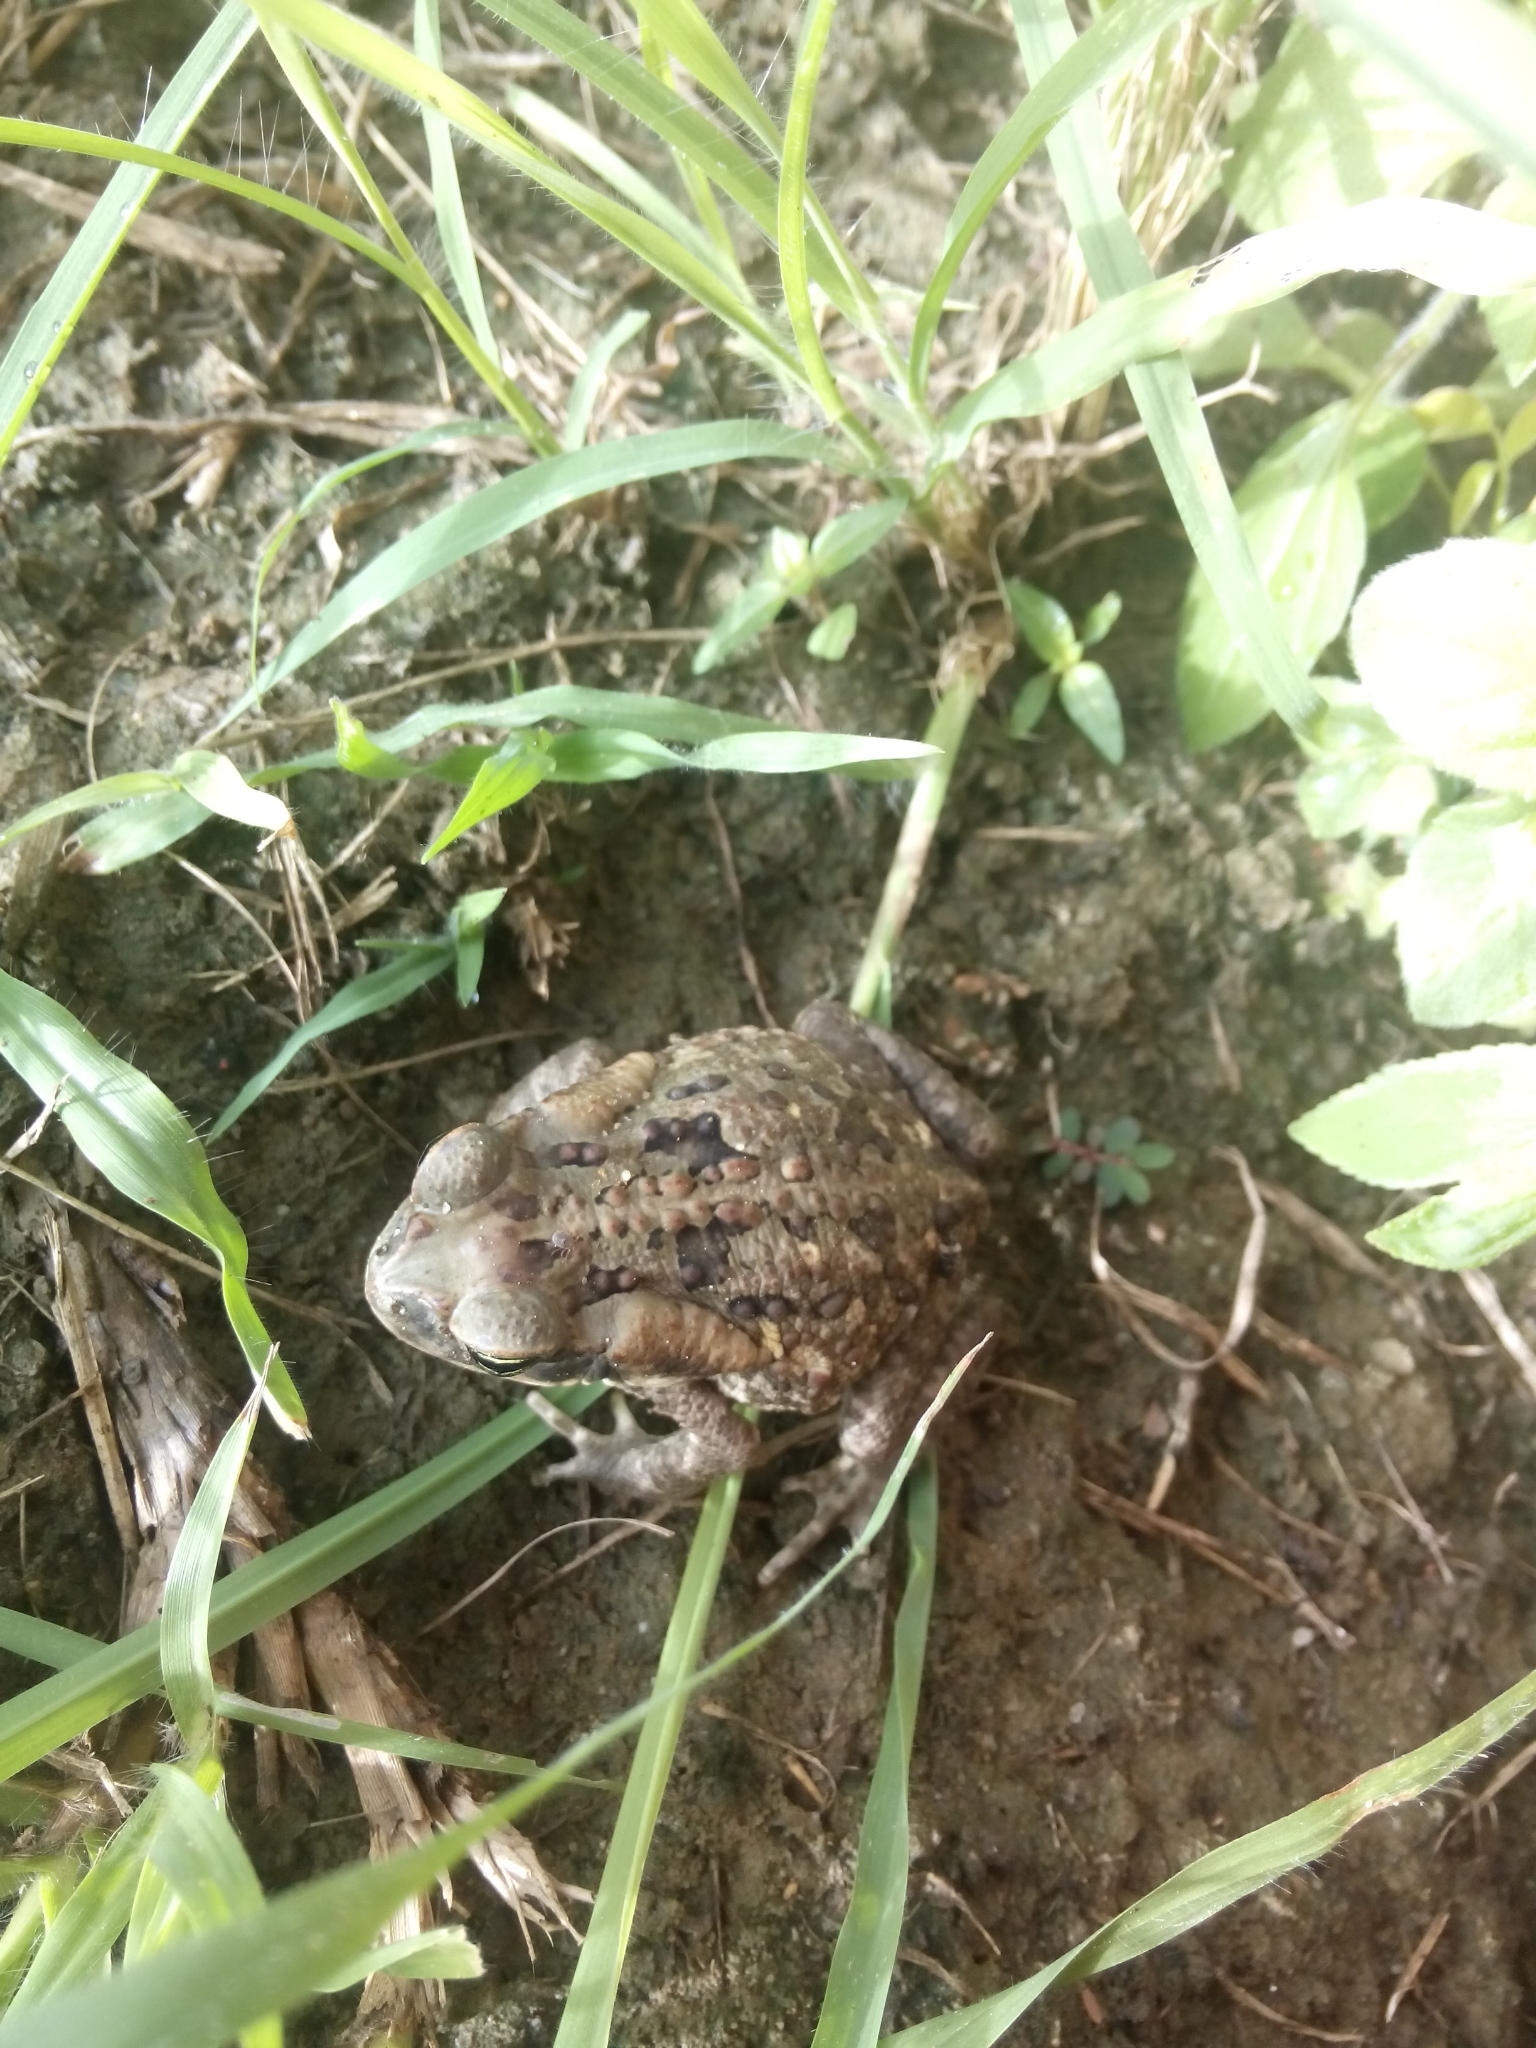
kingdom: Animalia
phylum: Chordata
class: Amphibia
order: Anura
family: Bufonidae
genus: Rhinella
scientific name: Rhinella horribilis
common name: Mesoamerican cane toad
